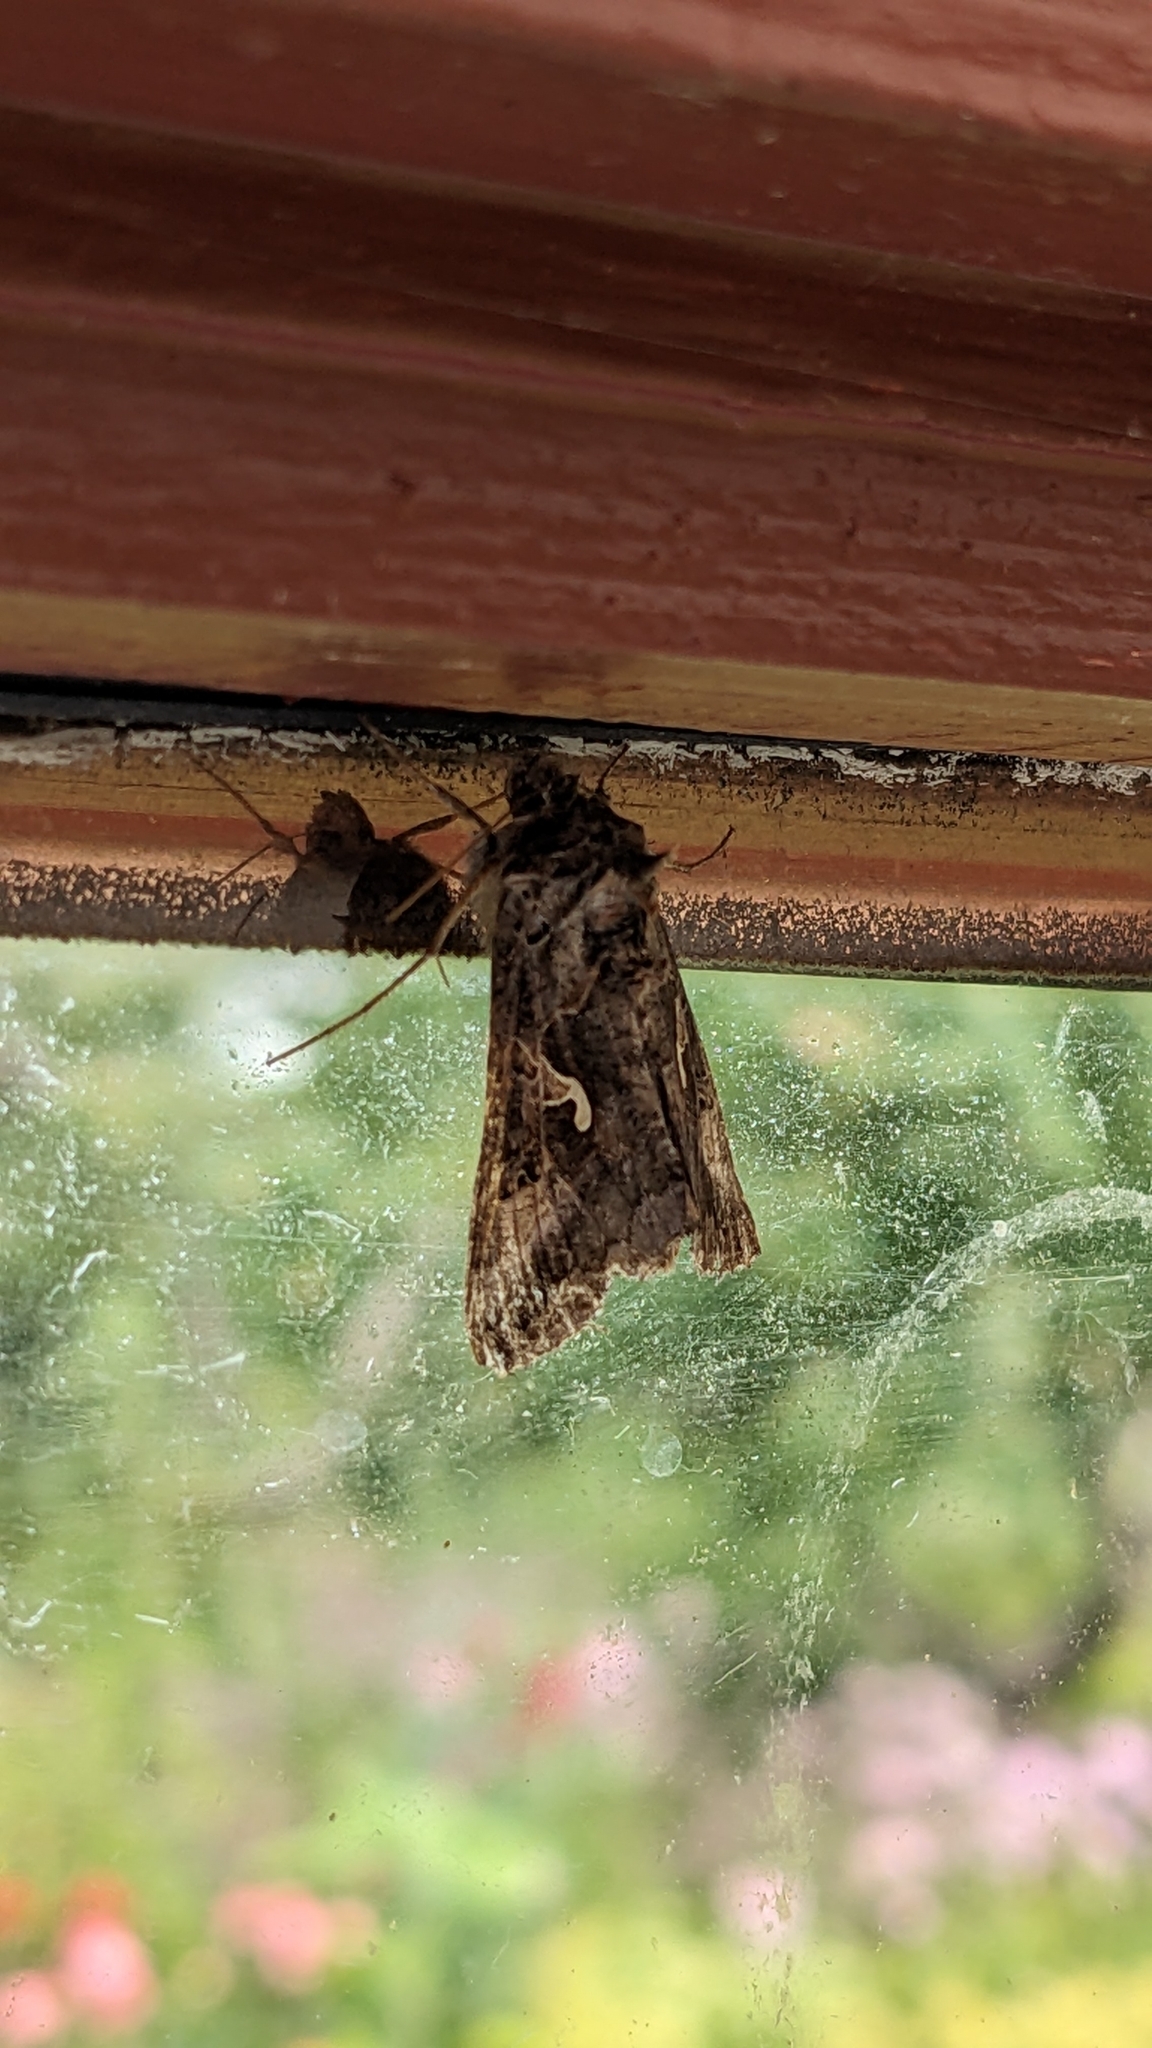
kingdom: Animalia
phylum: Arthropoda
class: Insecta
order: Lepidoptera
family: Noctuidae
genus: Autographa
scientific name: Autographa gamma
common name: Silver y
